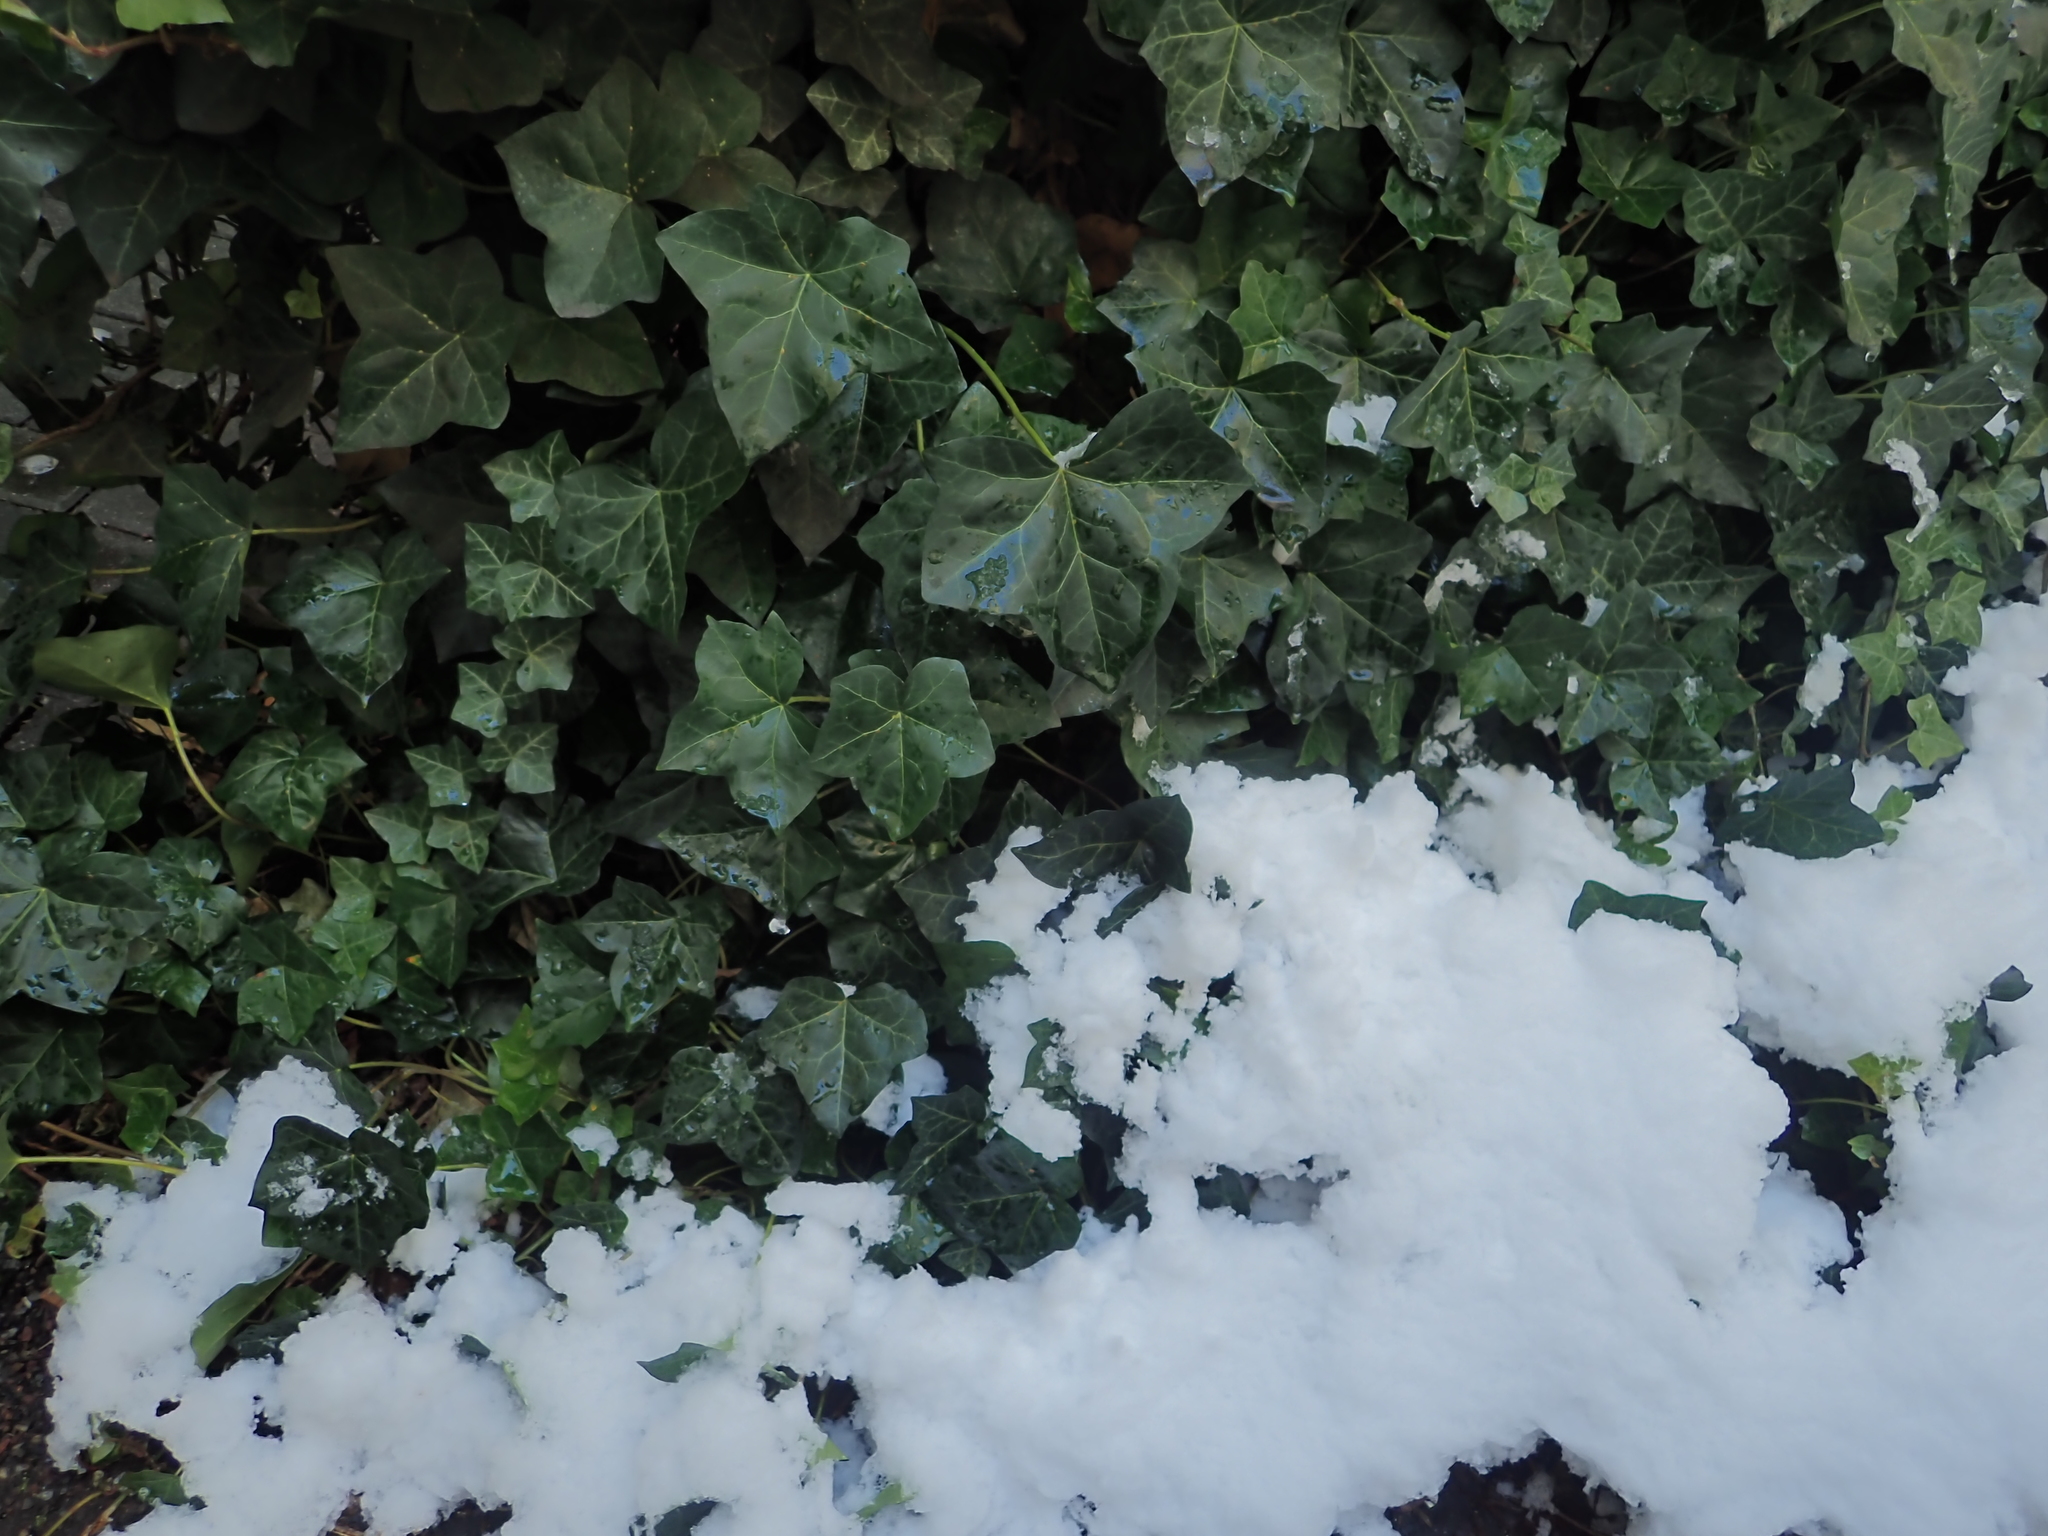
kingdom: Plantae
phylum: Tracheophyta
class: Magnoliopsida
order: Apiales
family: Araliaceae
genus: Hedera
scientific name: Hedera helix
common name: Ivy
